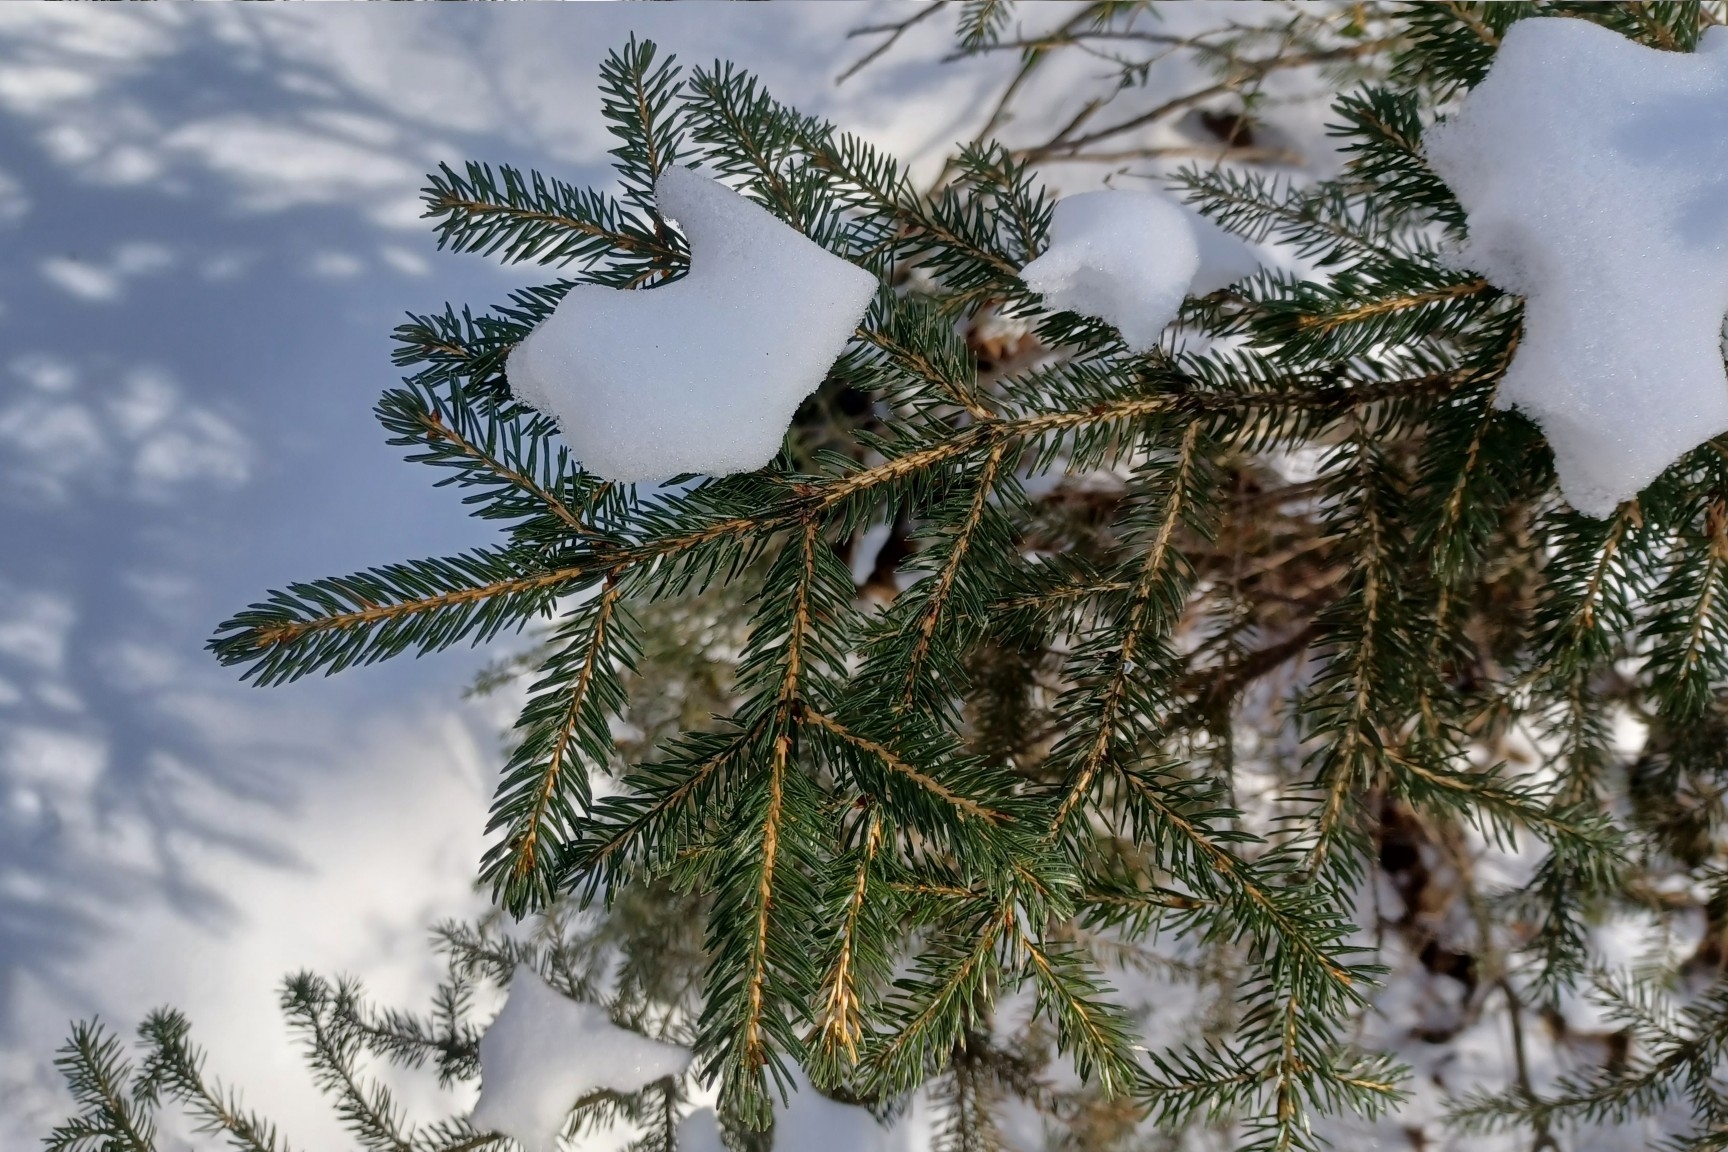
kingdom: Plantae
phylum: Tracheophyta
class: Pinopsida
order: Pinales
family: Pinaceae
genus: Picea
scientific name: Picea rubens
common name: Red spruce
